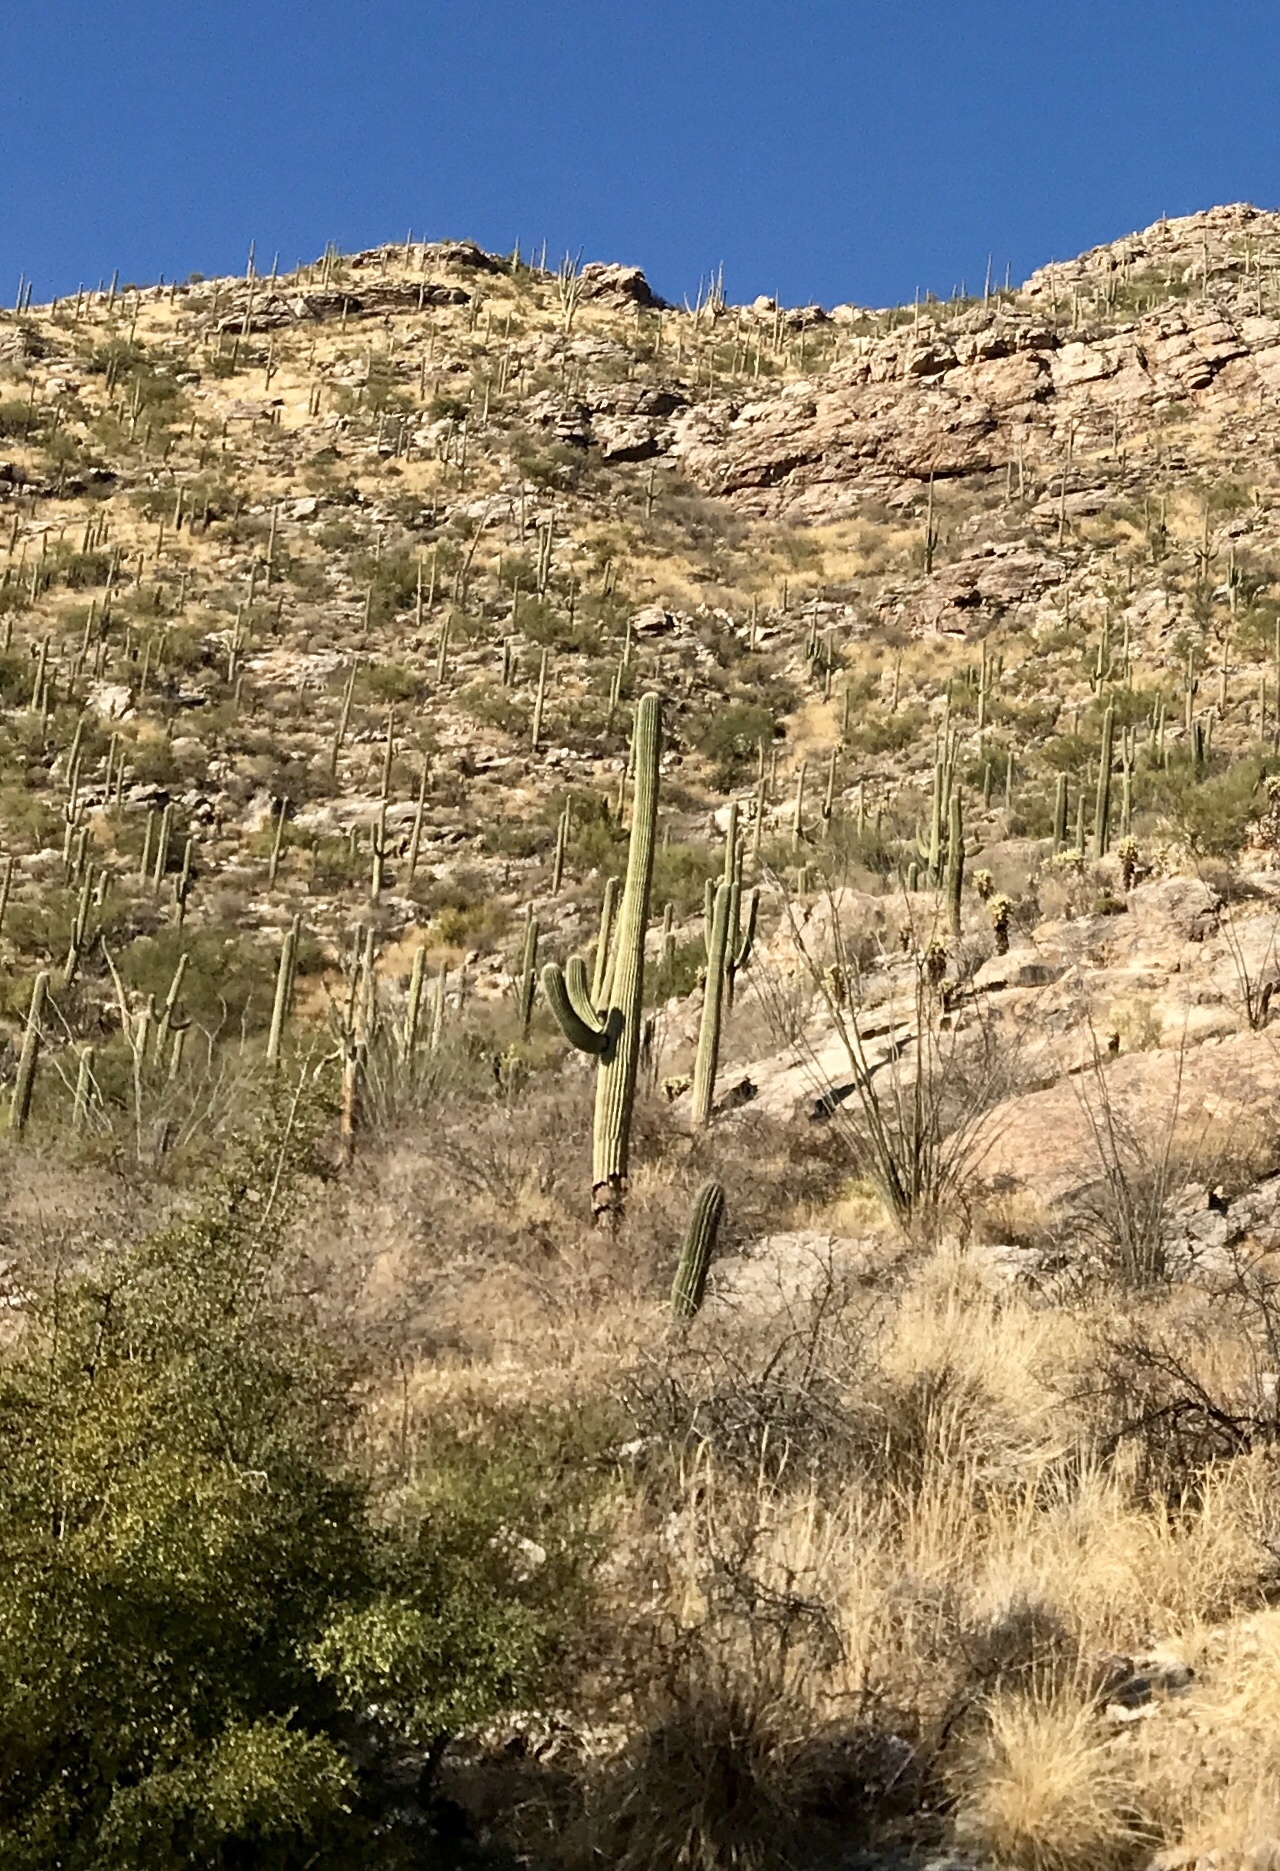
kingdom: Plantae
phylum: Tracheophyta
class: Magnoliopsida
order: Caryophyllales
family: Cactaceae
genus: Carnegiea
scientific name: Carnegiea gigantea
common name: Saguaro
